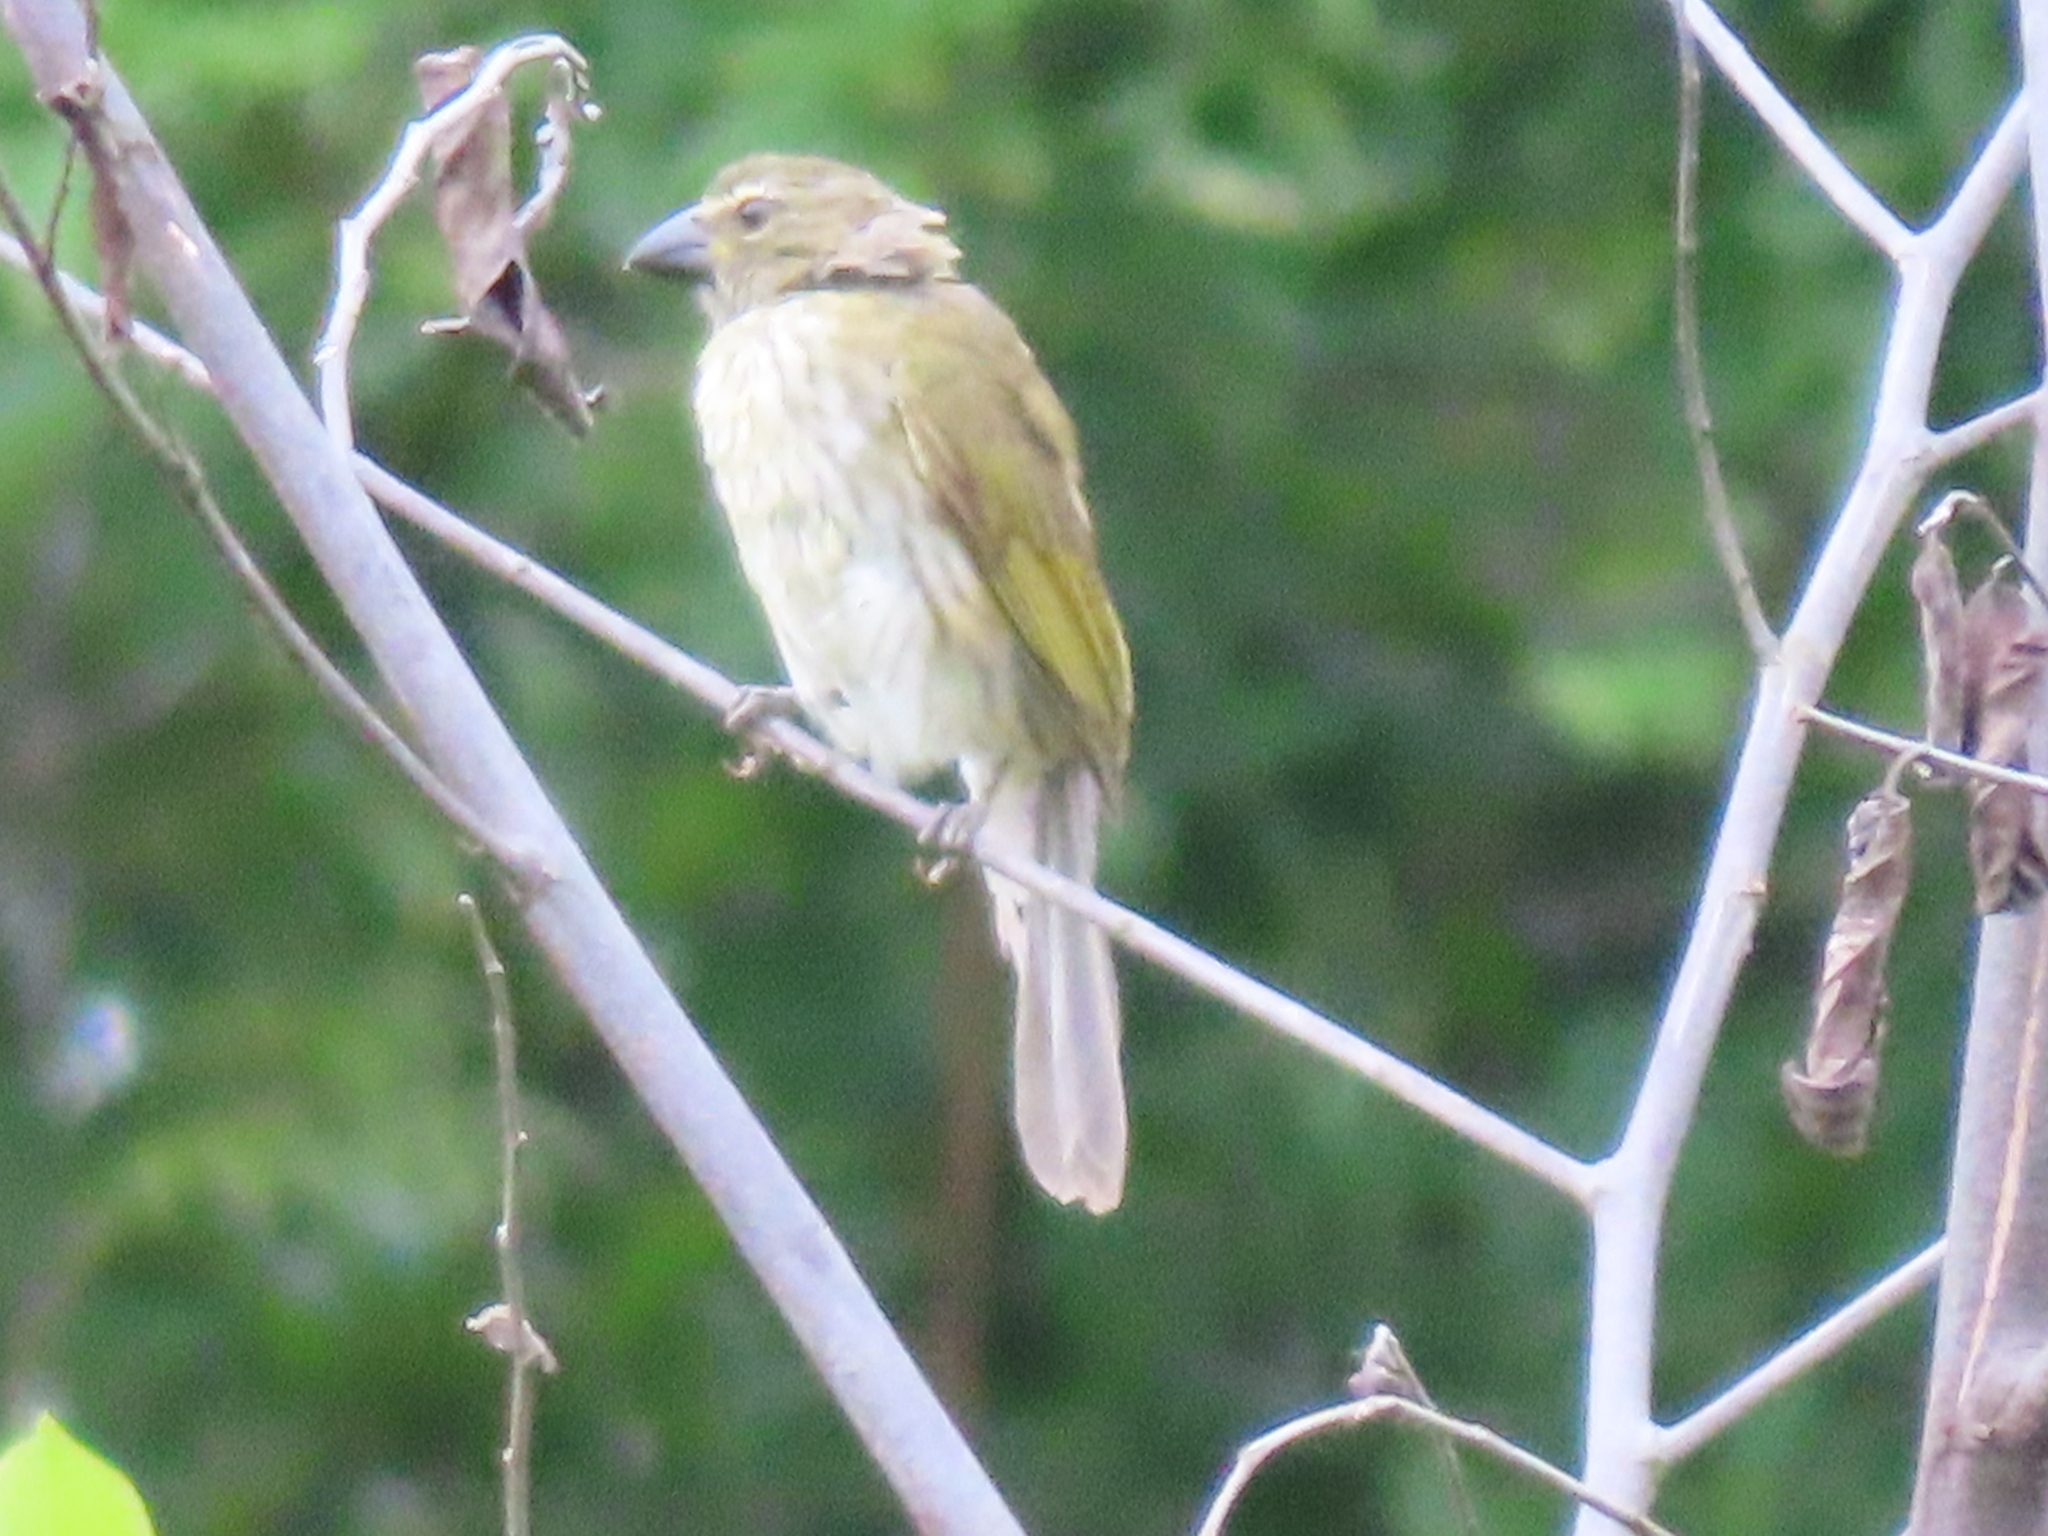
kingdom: Animalia
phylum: Chordata
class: Aves
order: Passeriformes
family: Thraupidae
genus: Saltator
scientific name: Saltator striatipectus
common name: Streaked saltator
